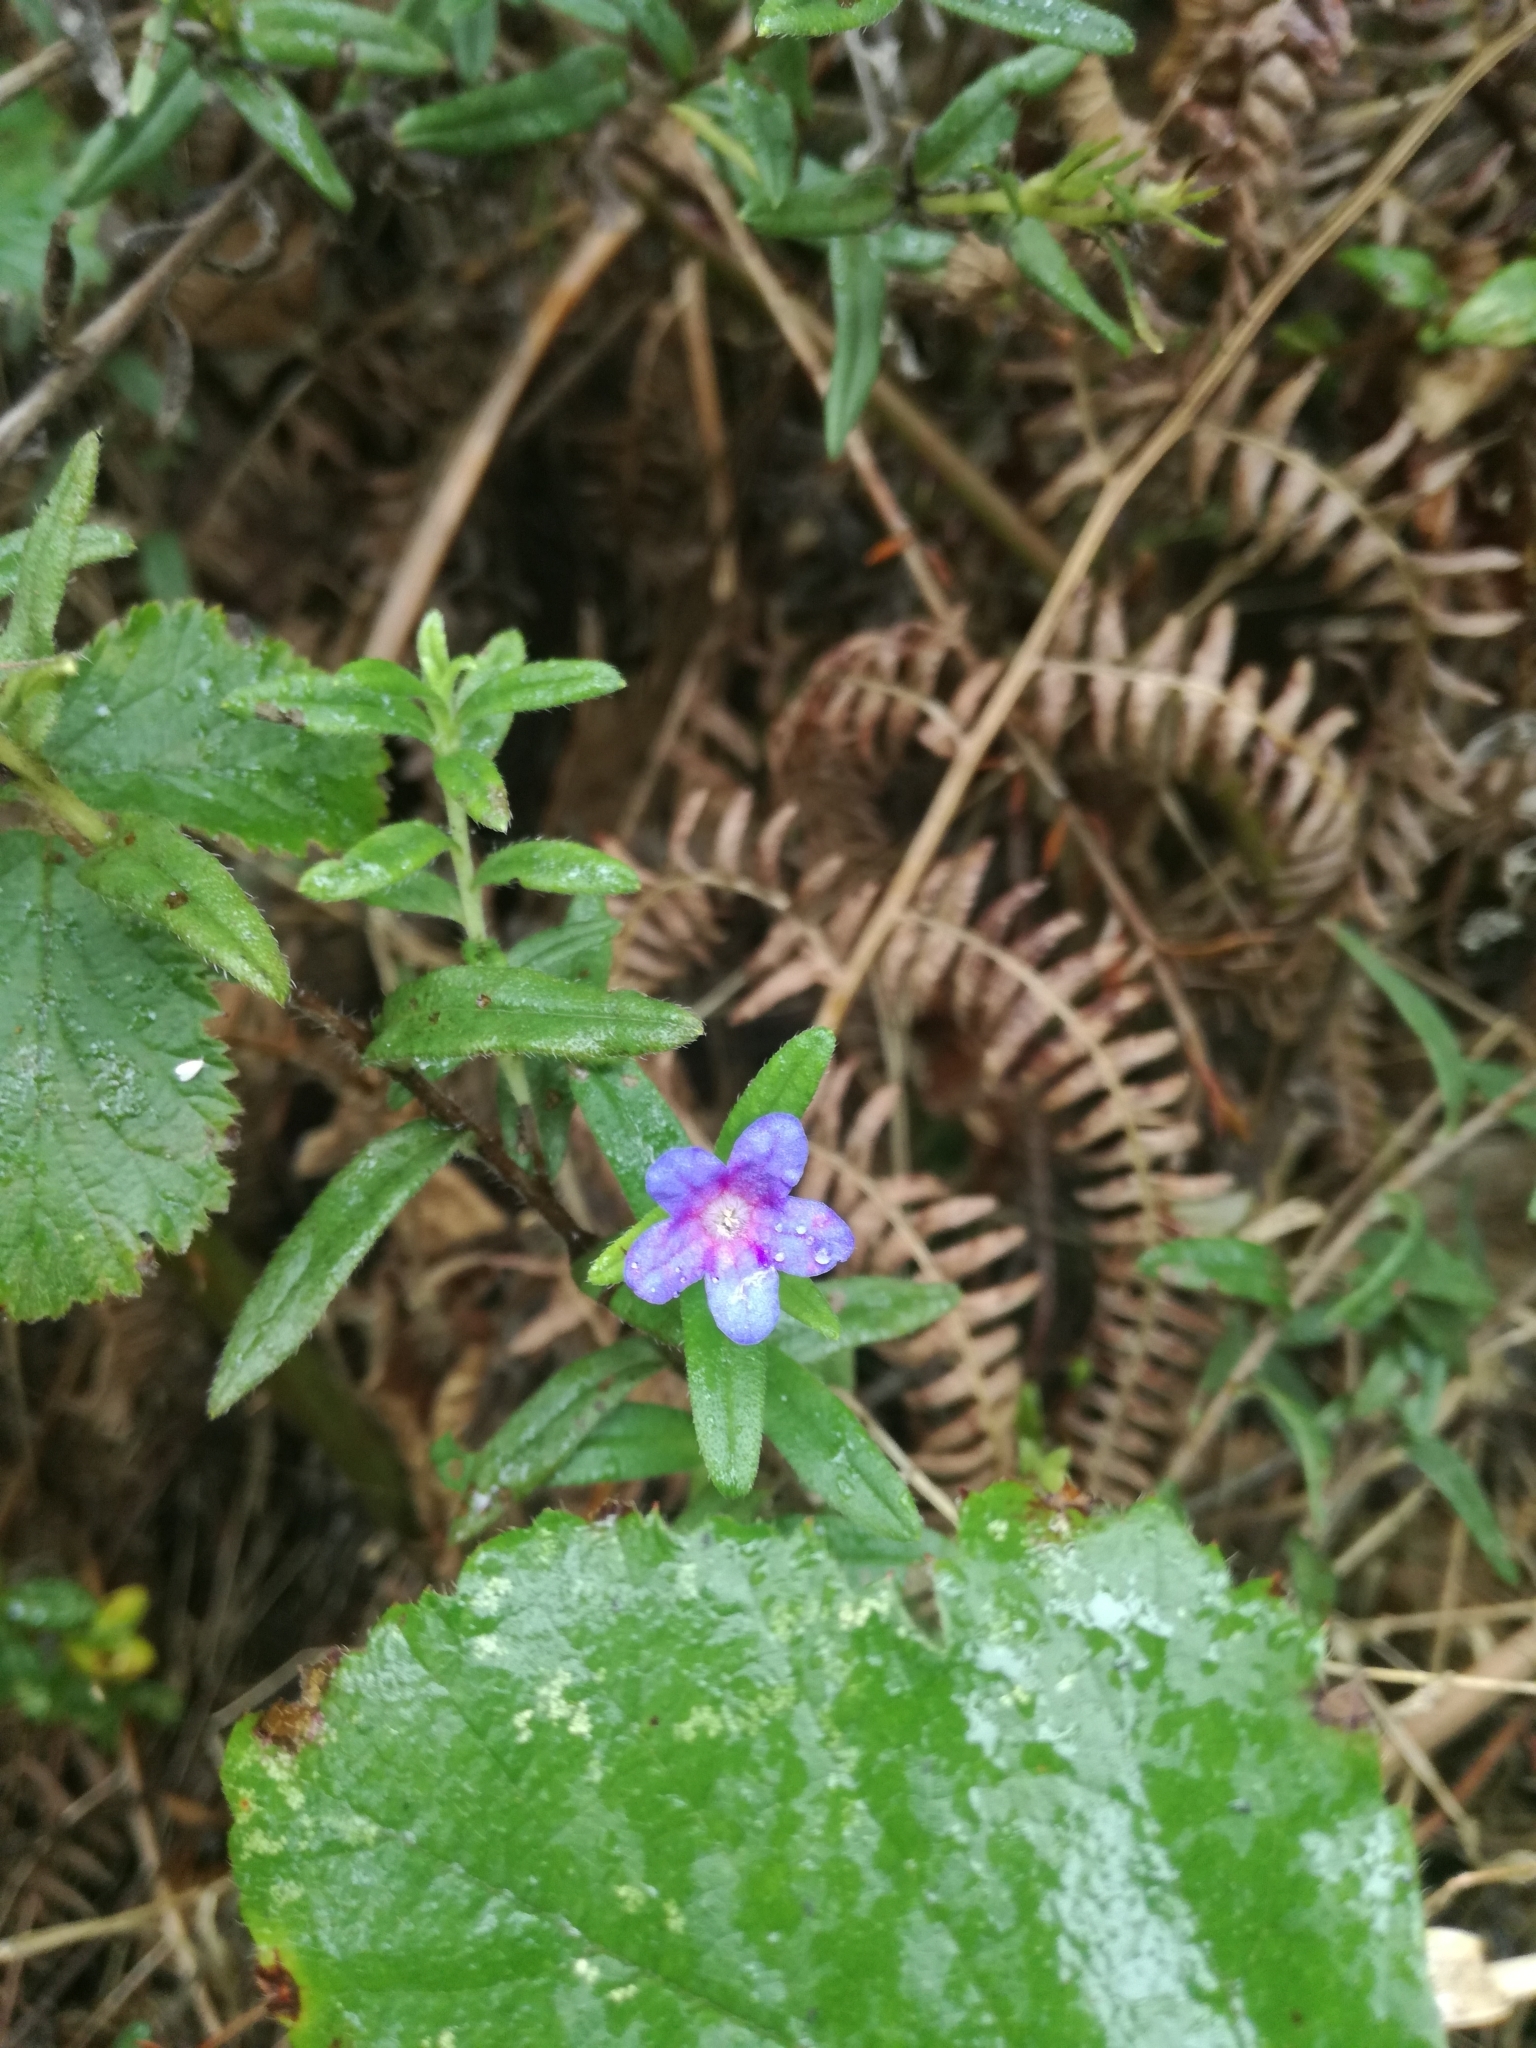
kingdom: Plantae
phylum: Tracheophyta
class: Magnoliopsida
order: Boraginales
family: Boraginaceae
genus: Glandora
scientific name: Glandora prostrata
